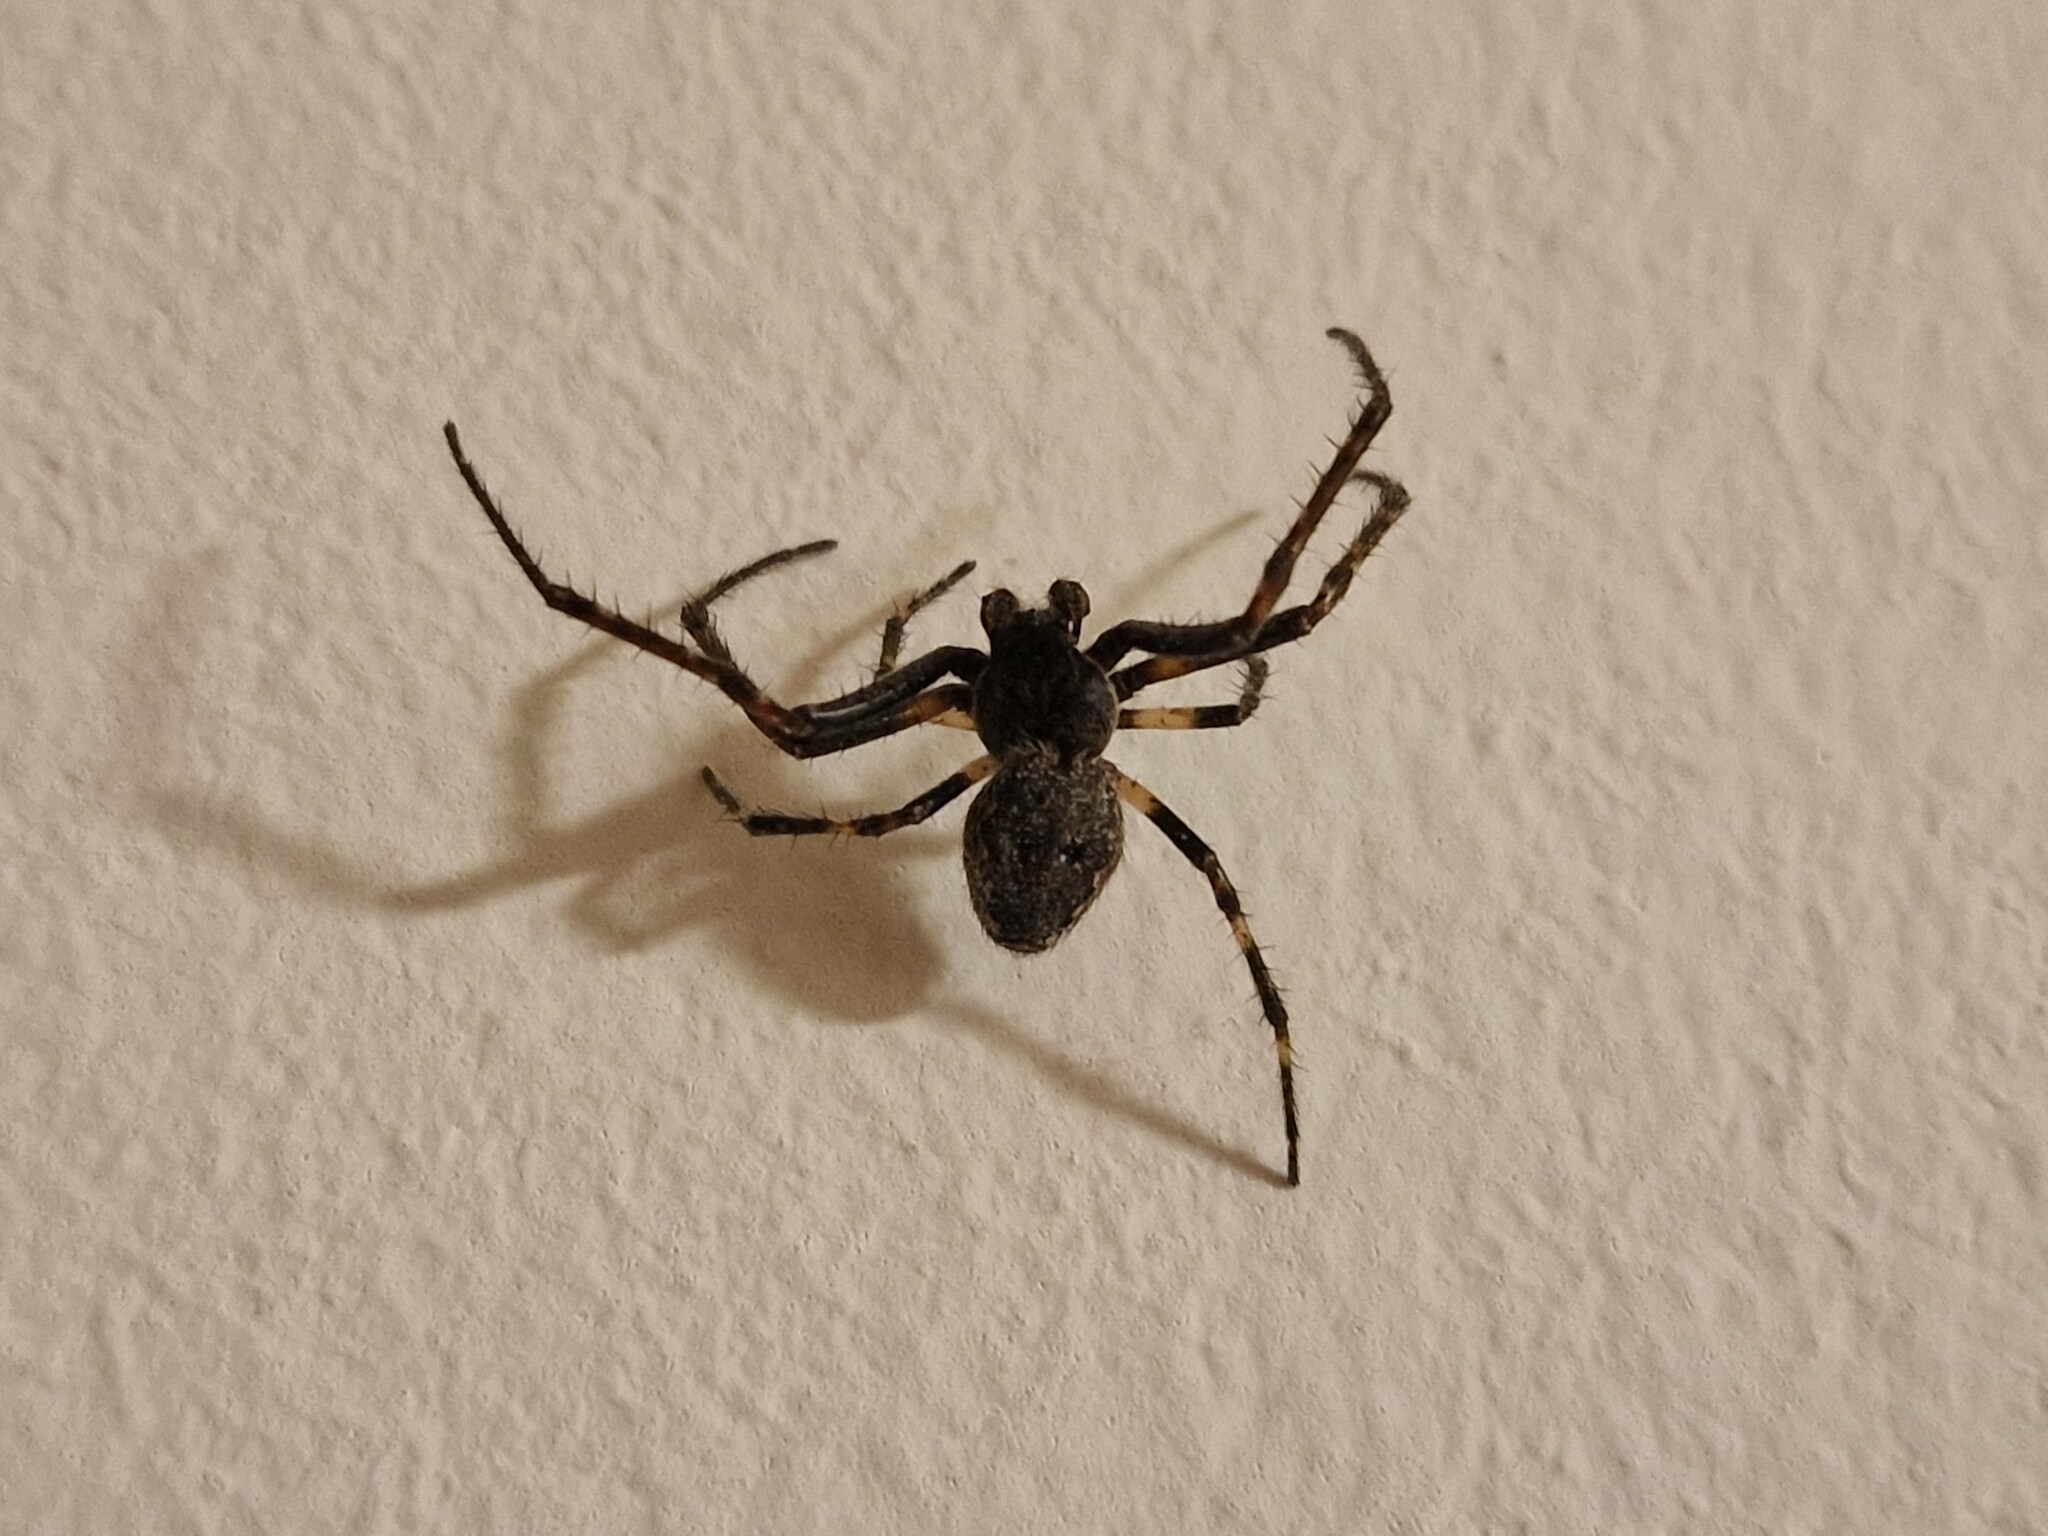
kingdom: Animalia
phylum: Arthropoda
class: Arachnida
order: Araneae
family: Araneidae
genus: Nuctenea
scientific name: Nuctenea umbratica
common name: Toad spider
